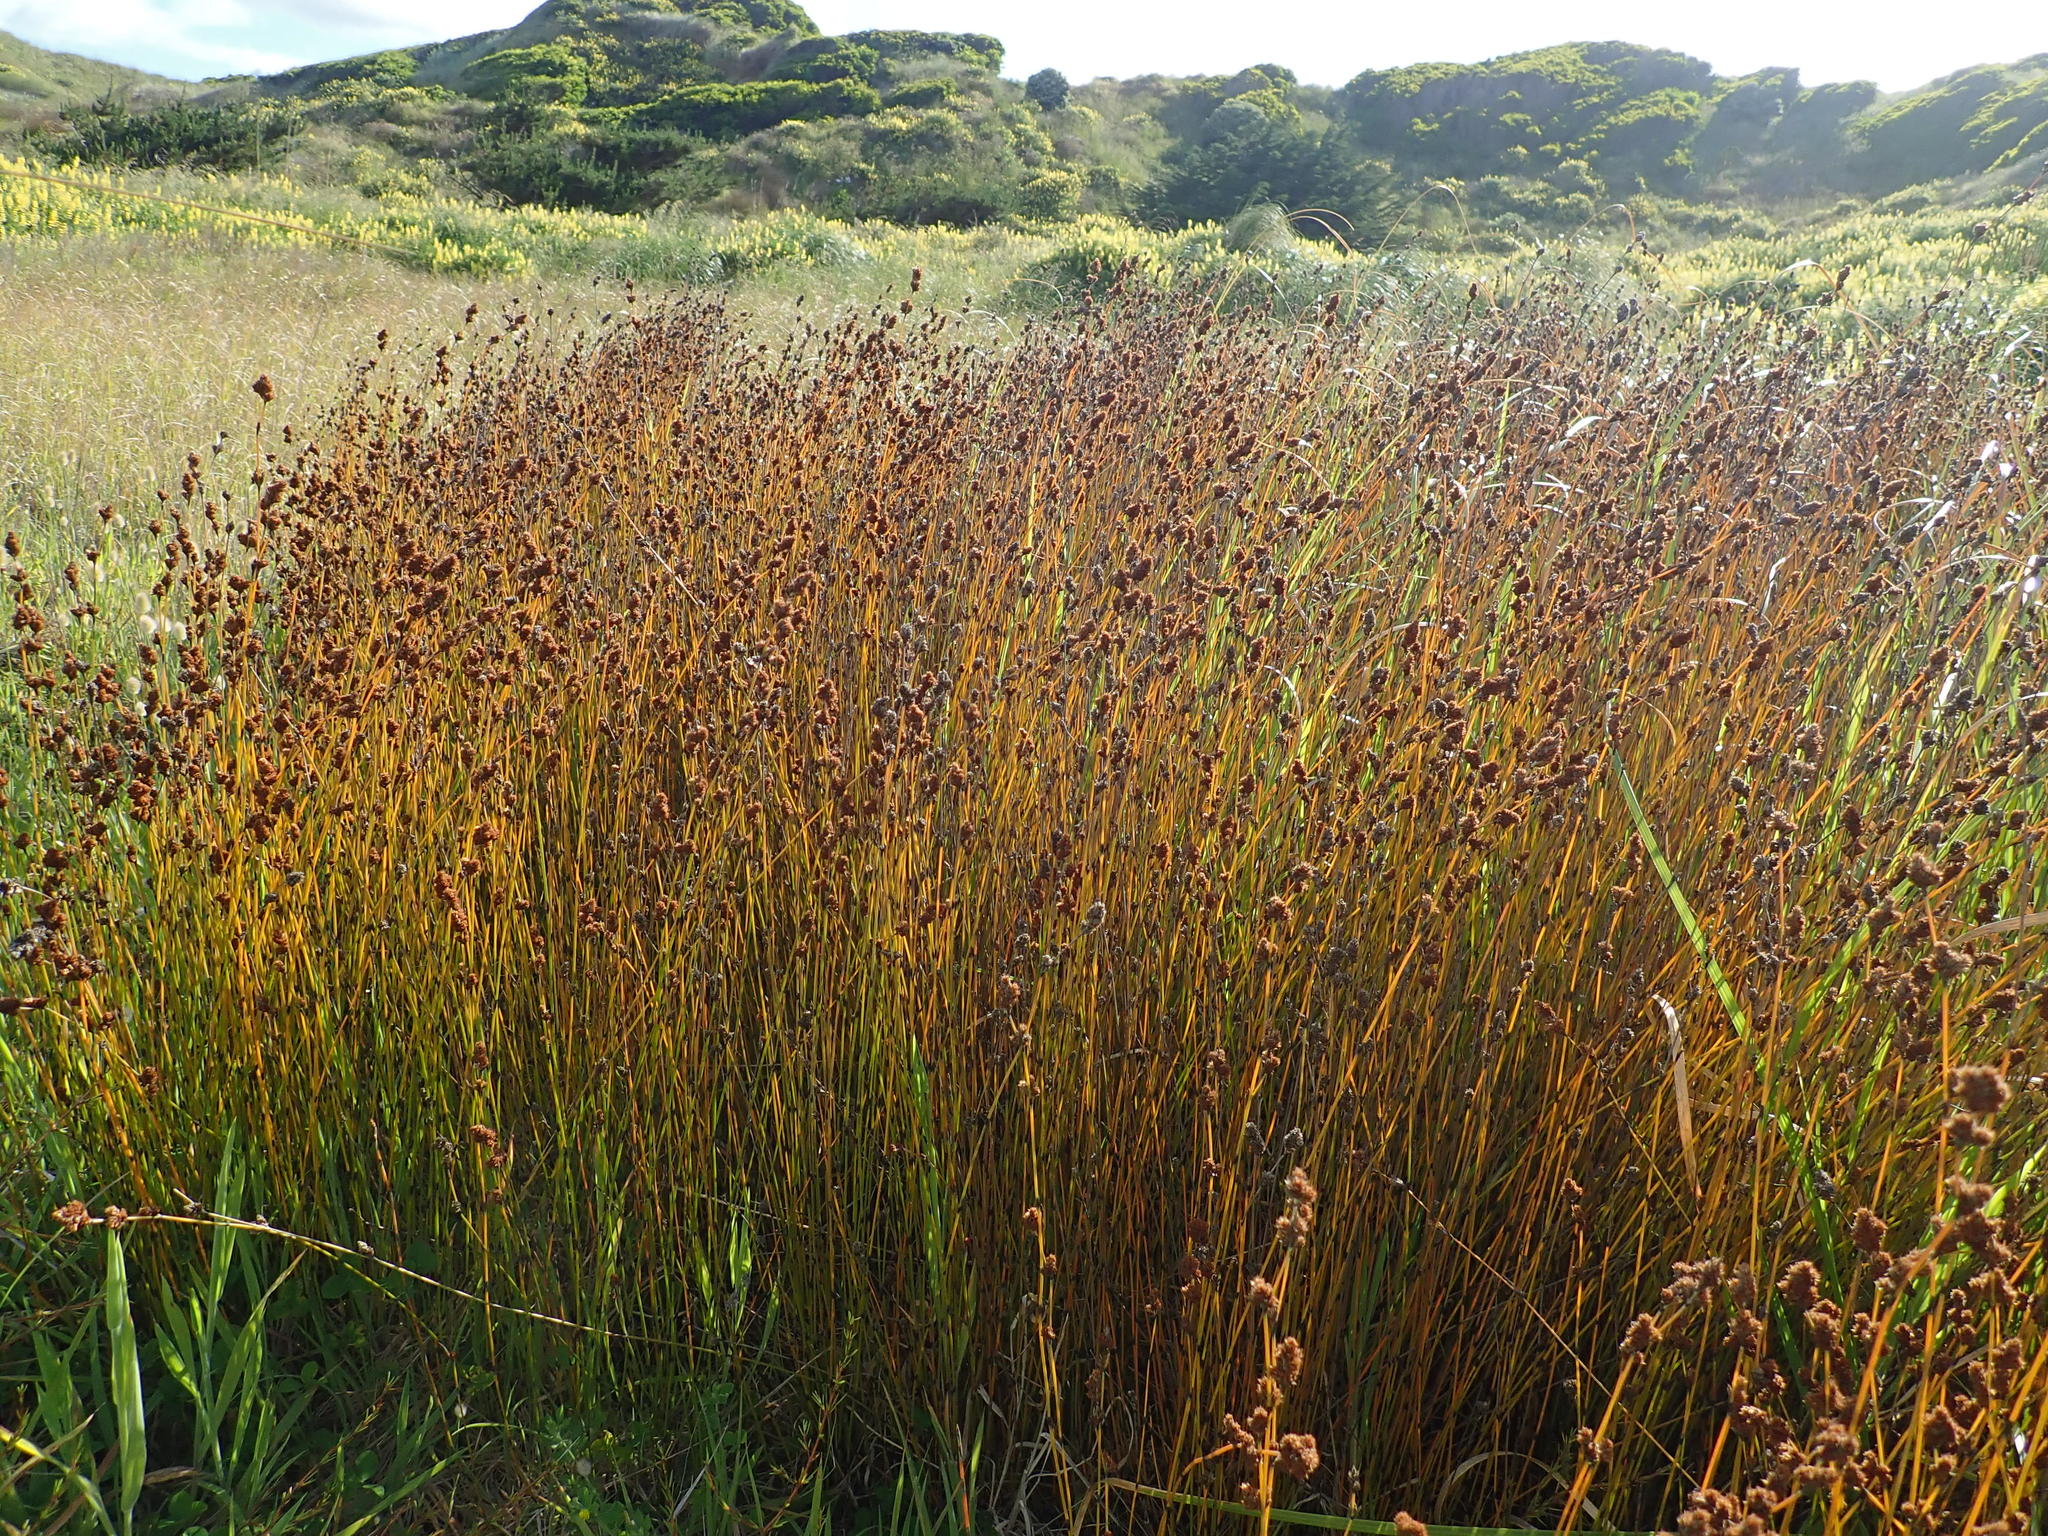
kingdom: Plantae
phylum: Tracheophyta
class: Liliopsida
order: Poales
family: Restionaceae
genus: Apodasmia
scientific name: Apodasmia similis
